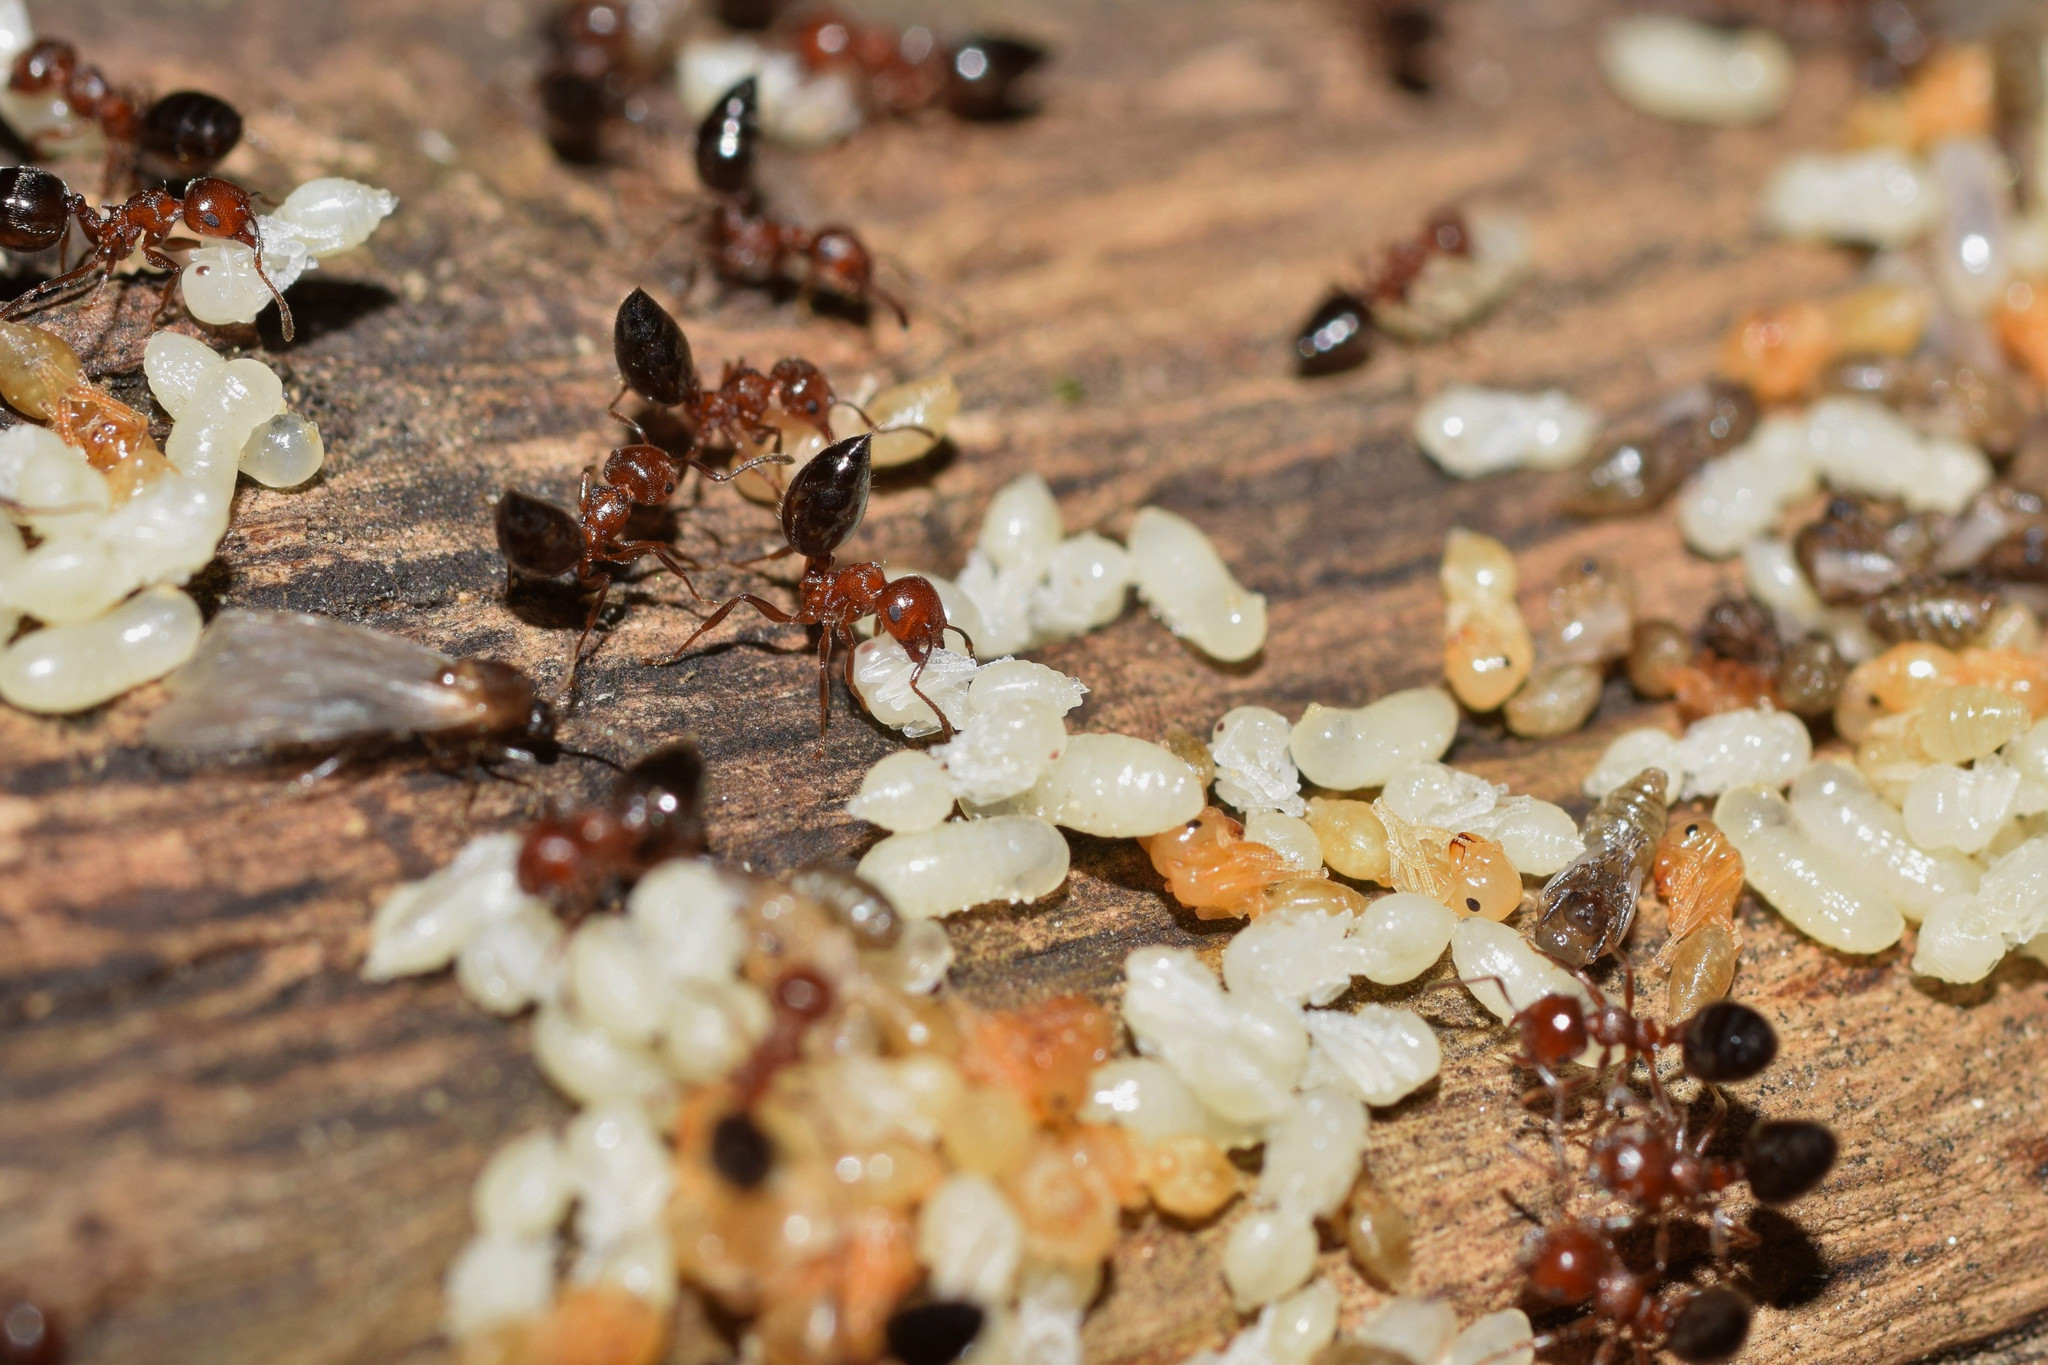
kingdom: Animalia
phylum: Arthropoda
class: Insecta
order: Hymenoptera
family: Formicidae
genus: Crematogaster
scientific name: Crematogaster schmidti
